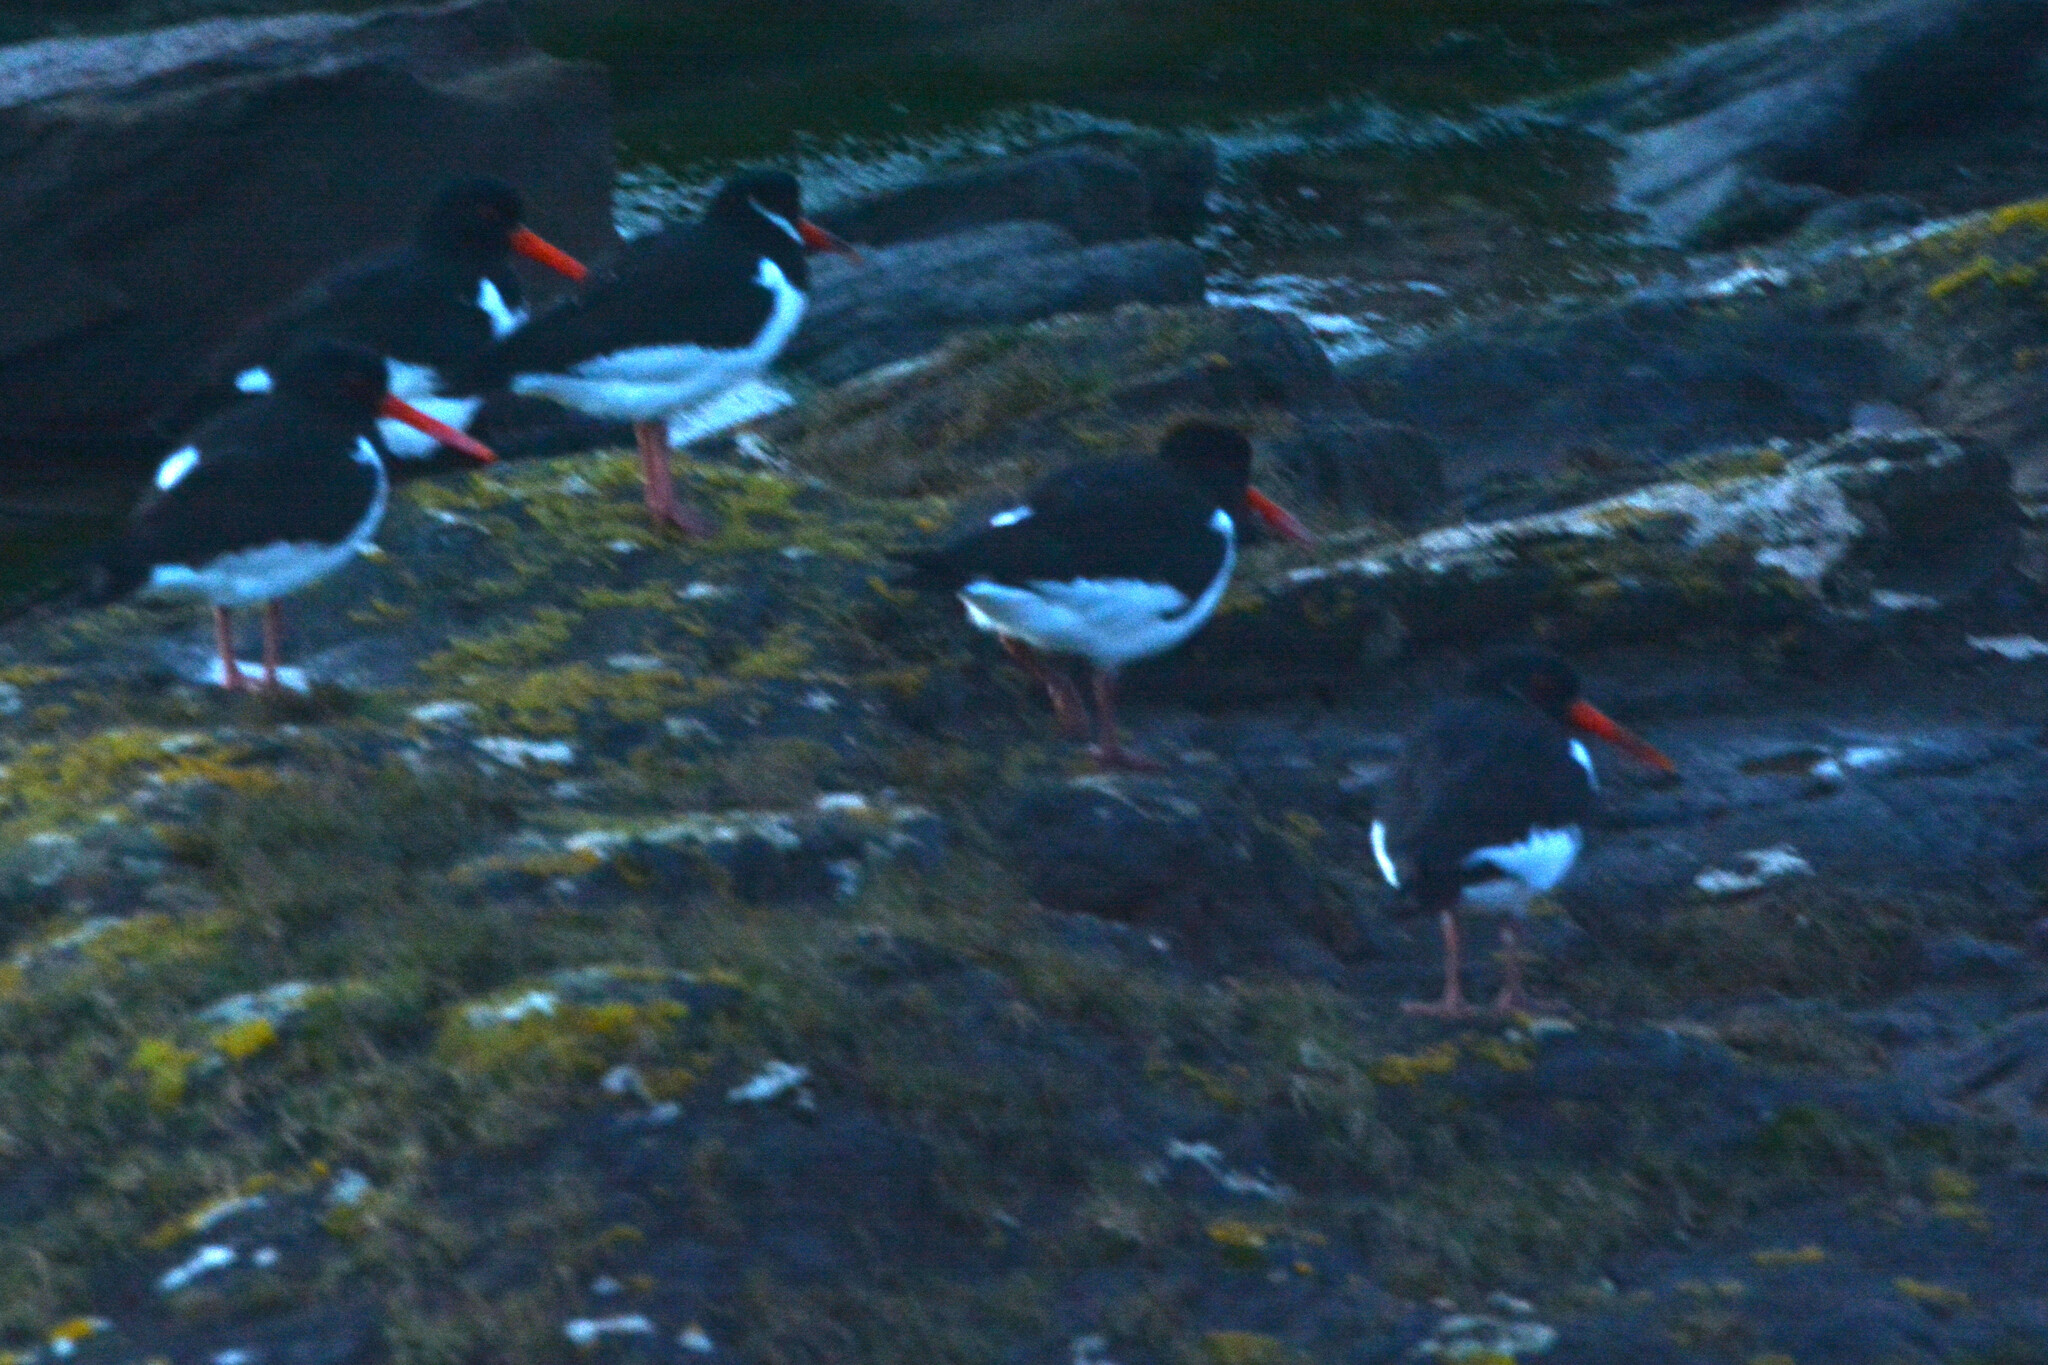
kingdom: Animalia
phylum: Chordata
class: Aves
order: Charadriiformes
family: Haematopodidae
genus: Haematopus
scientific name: Haematopus ostralegus
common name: Eurasian oystercatcher
